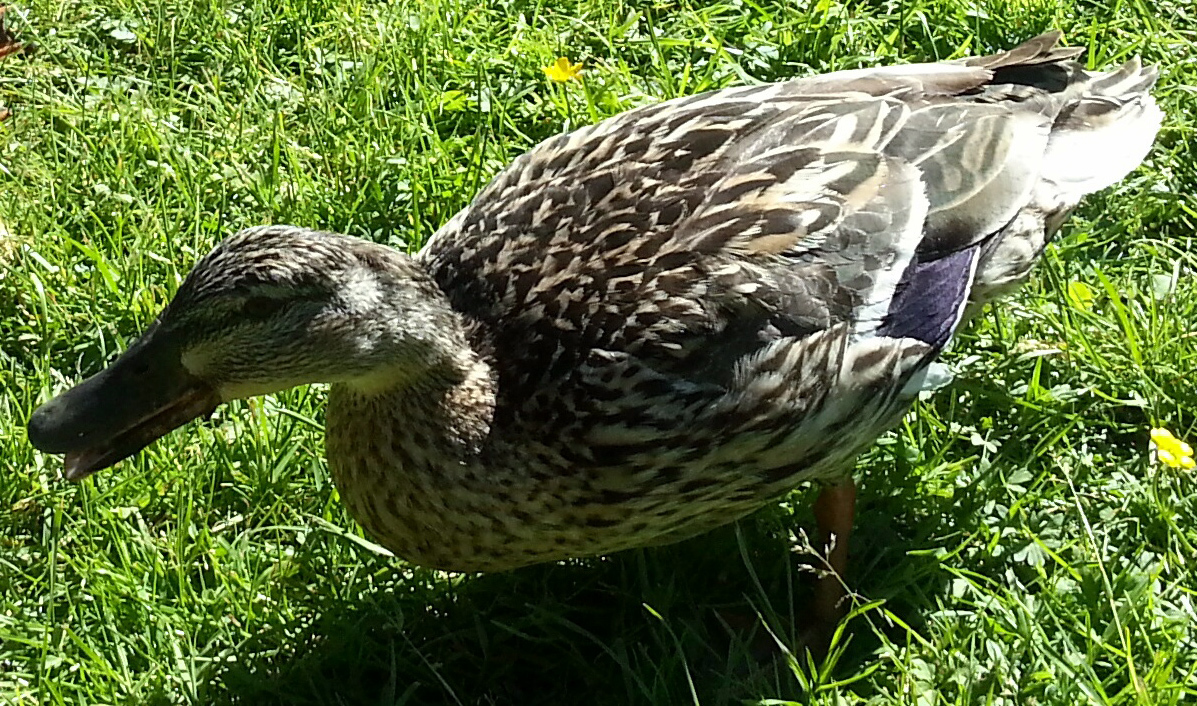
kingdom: Animalia
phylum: Chordata
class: Aves
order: Anseriformes
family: Anatidae
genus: Anas
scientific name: Anas platyrhynchos
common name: Mallard
